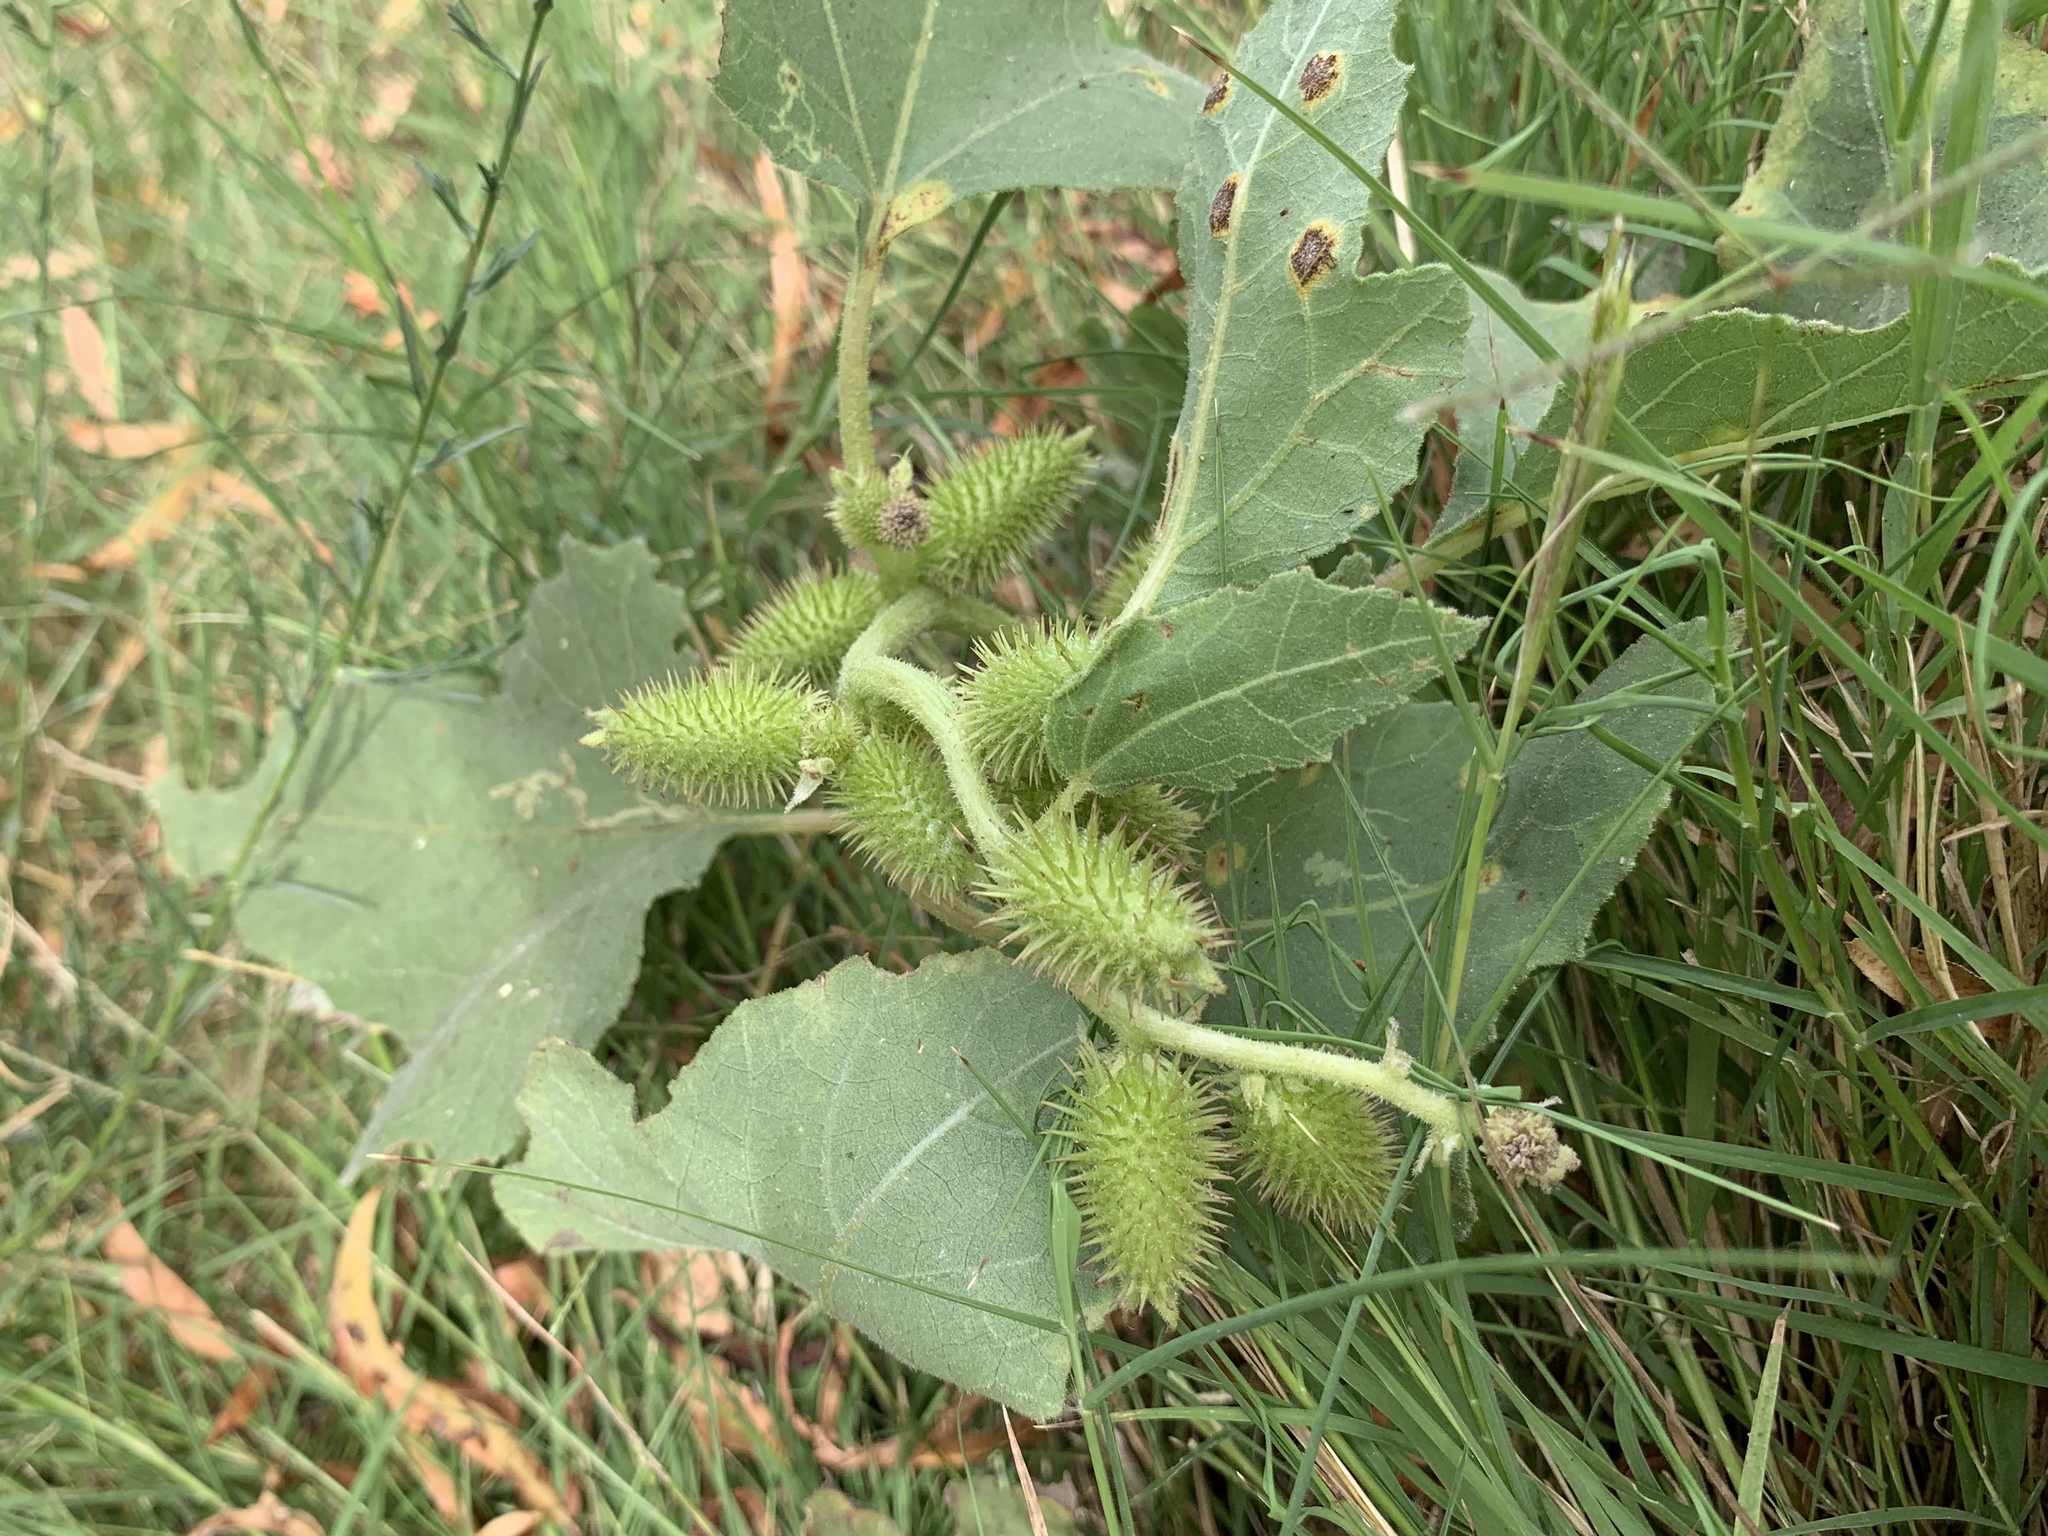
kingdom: Plantae
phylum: Tracheophyta
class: Magnoliopsida
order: Asterales
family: Asteraceae
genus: Xanthium
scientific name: Xanthium strumarium
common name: Rough cocklebur
